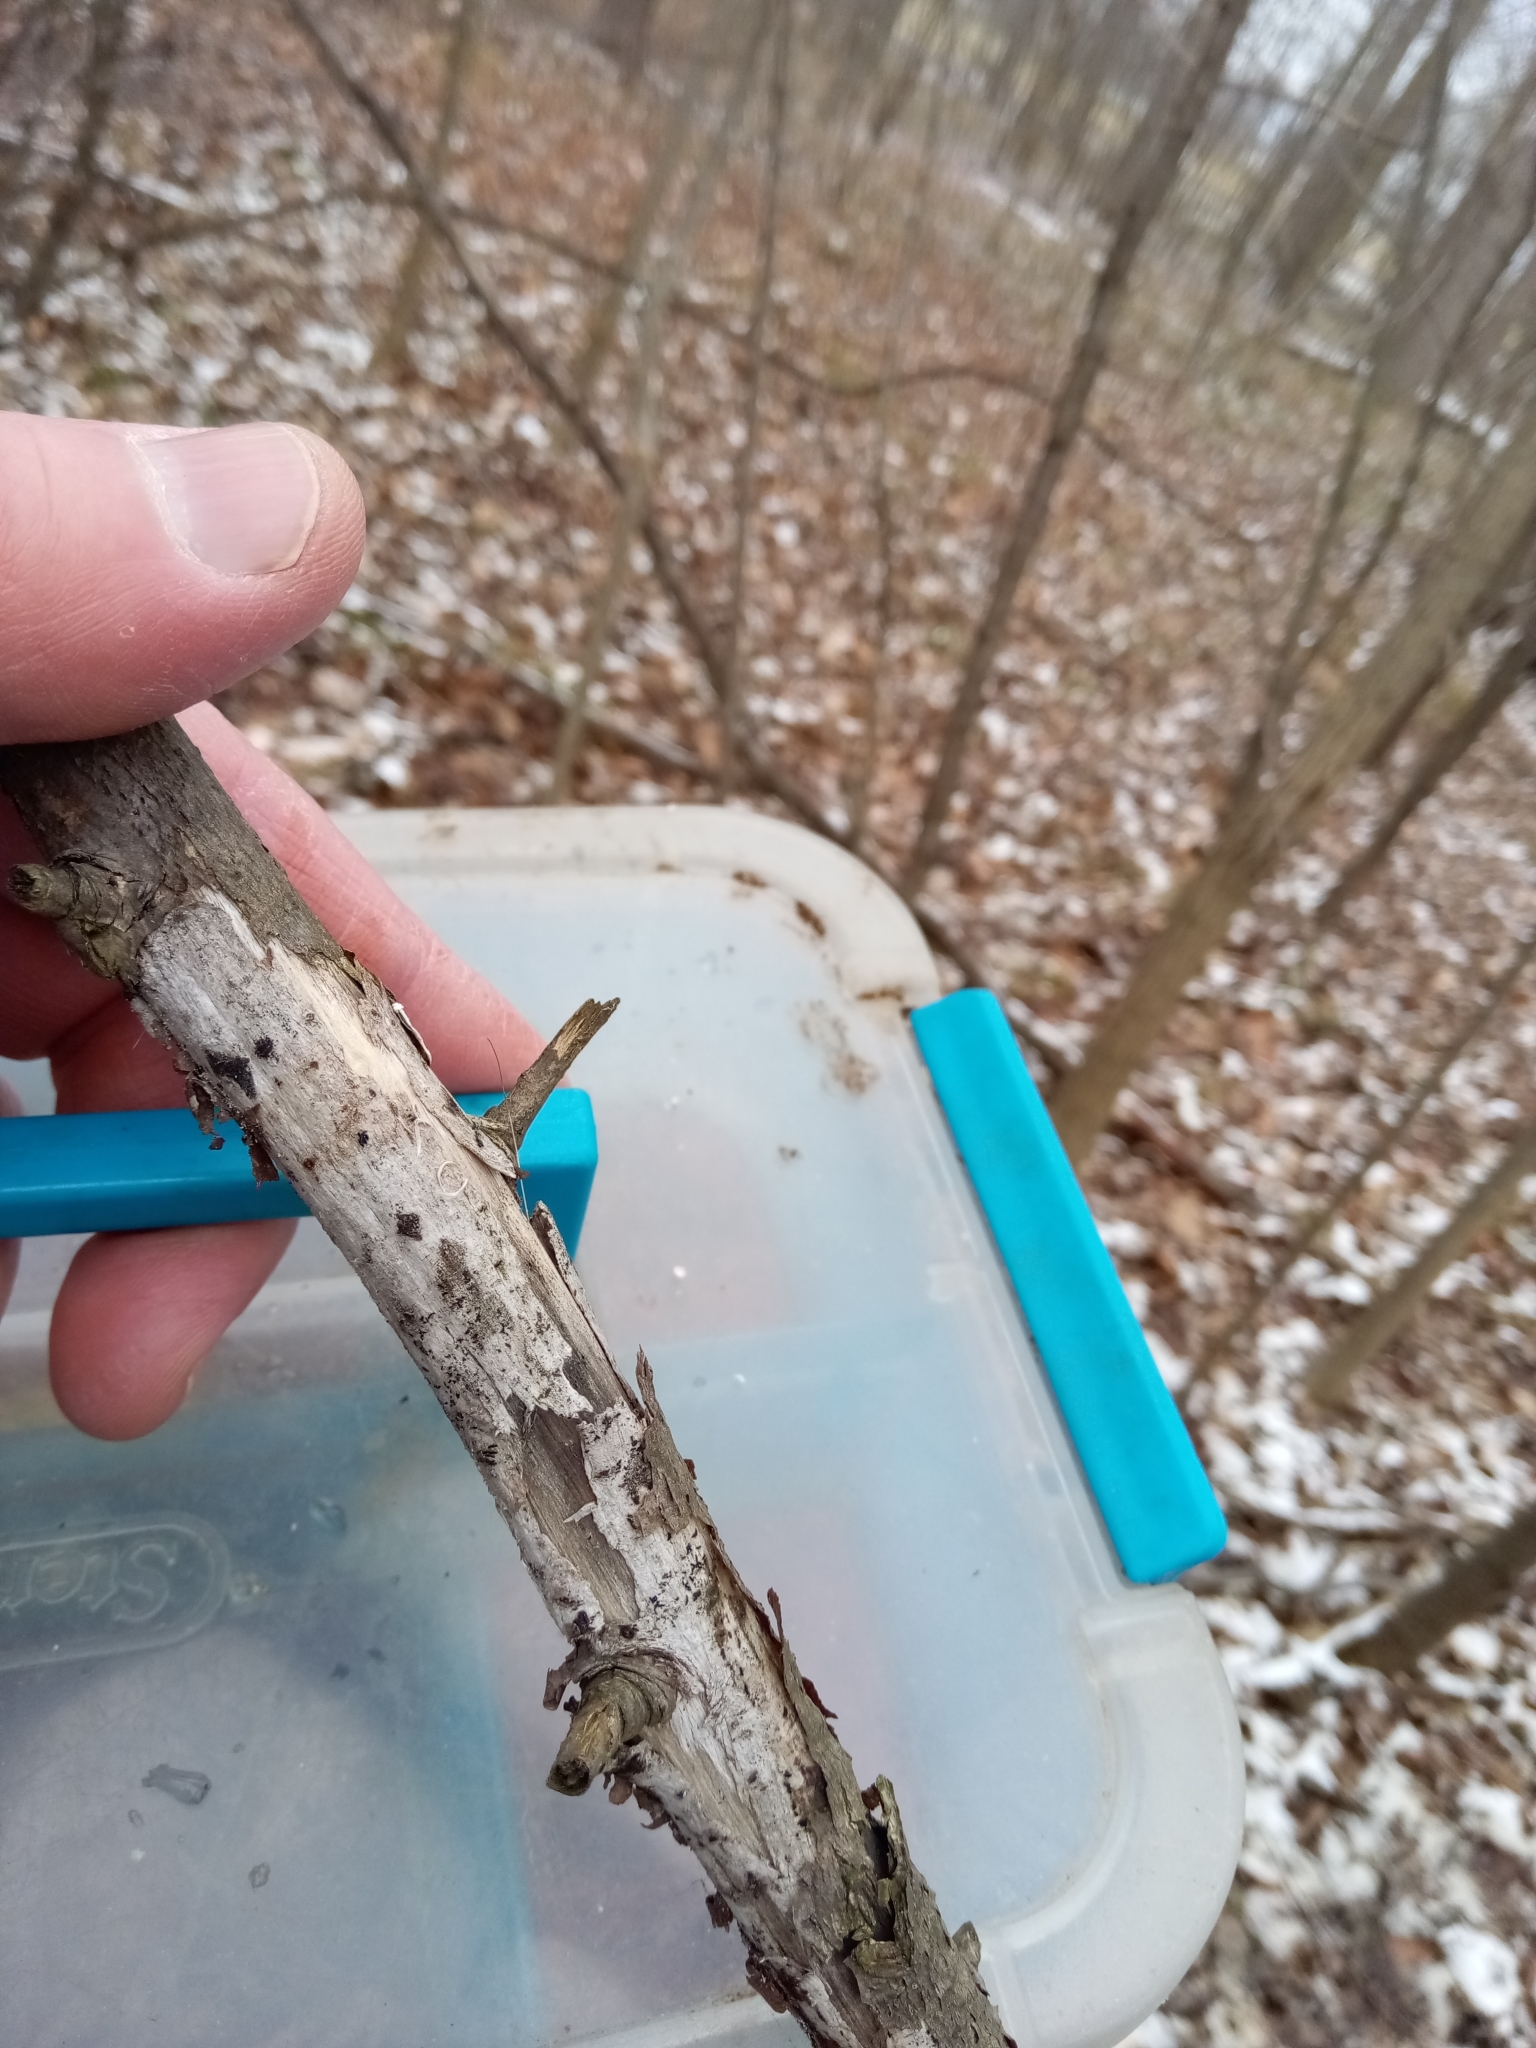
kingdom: Fungi
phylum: Ascomycota
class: Dothideomycetes
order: Patellariales
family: Patellariaceae
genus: Patellaria
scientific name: Patellaria atrata
